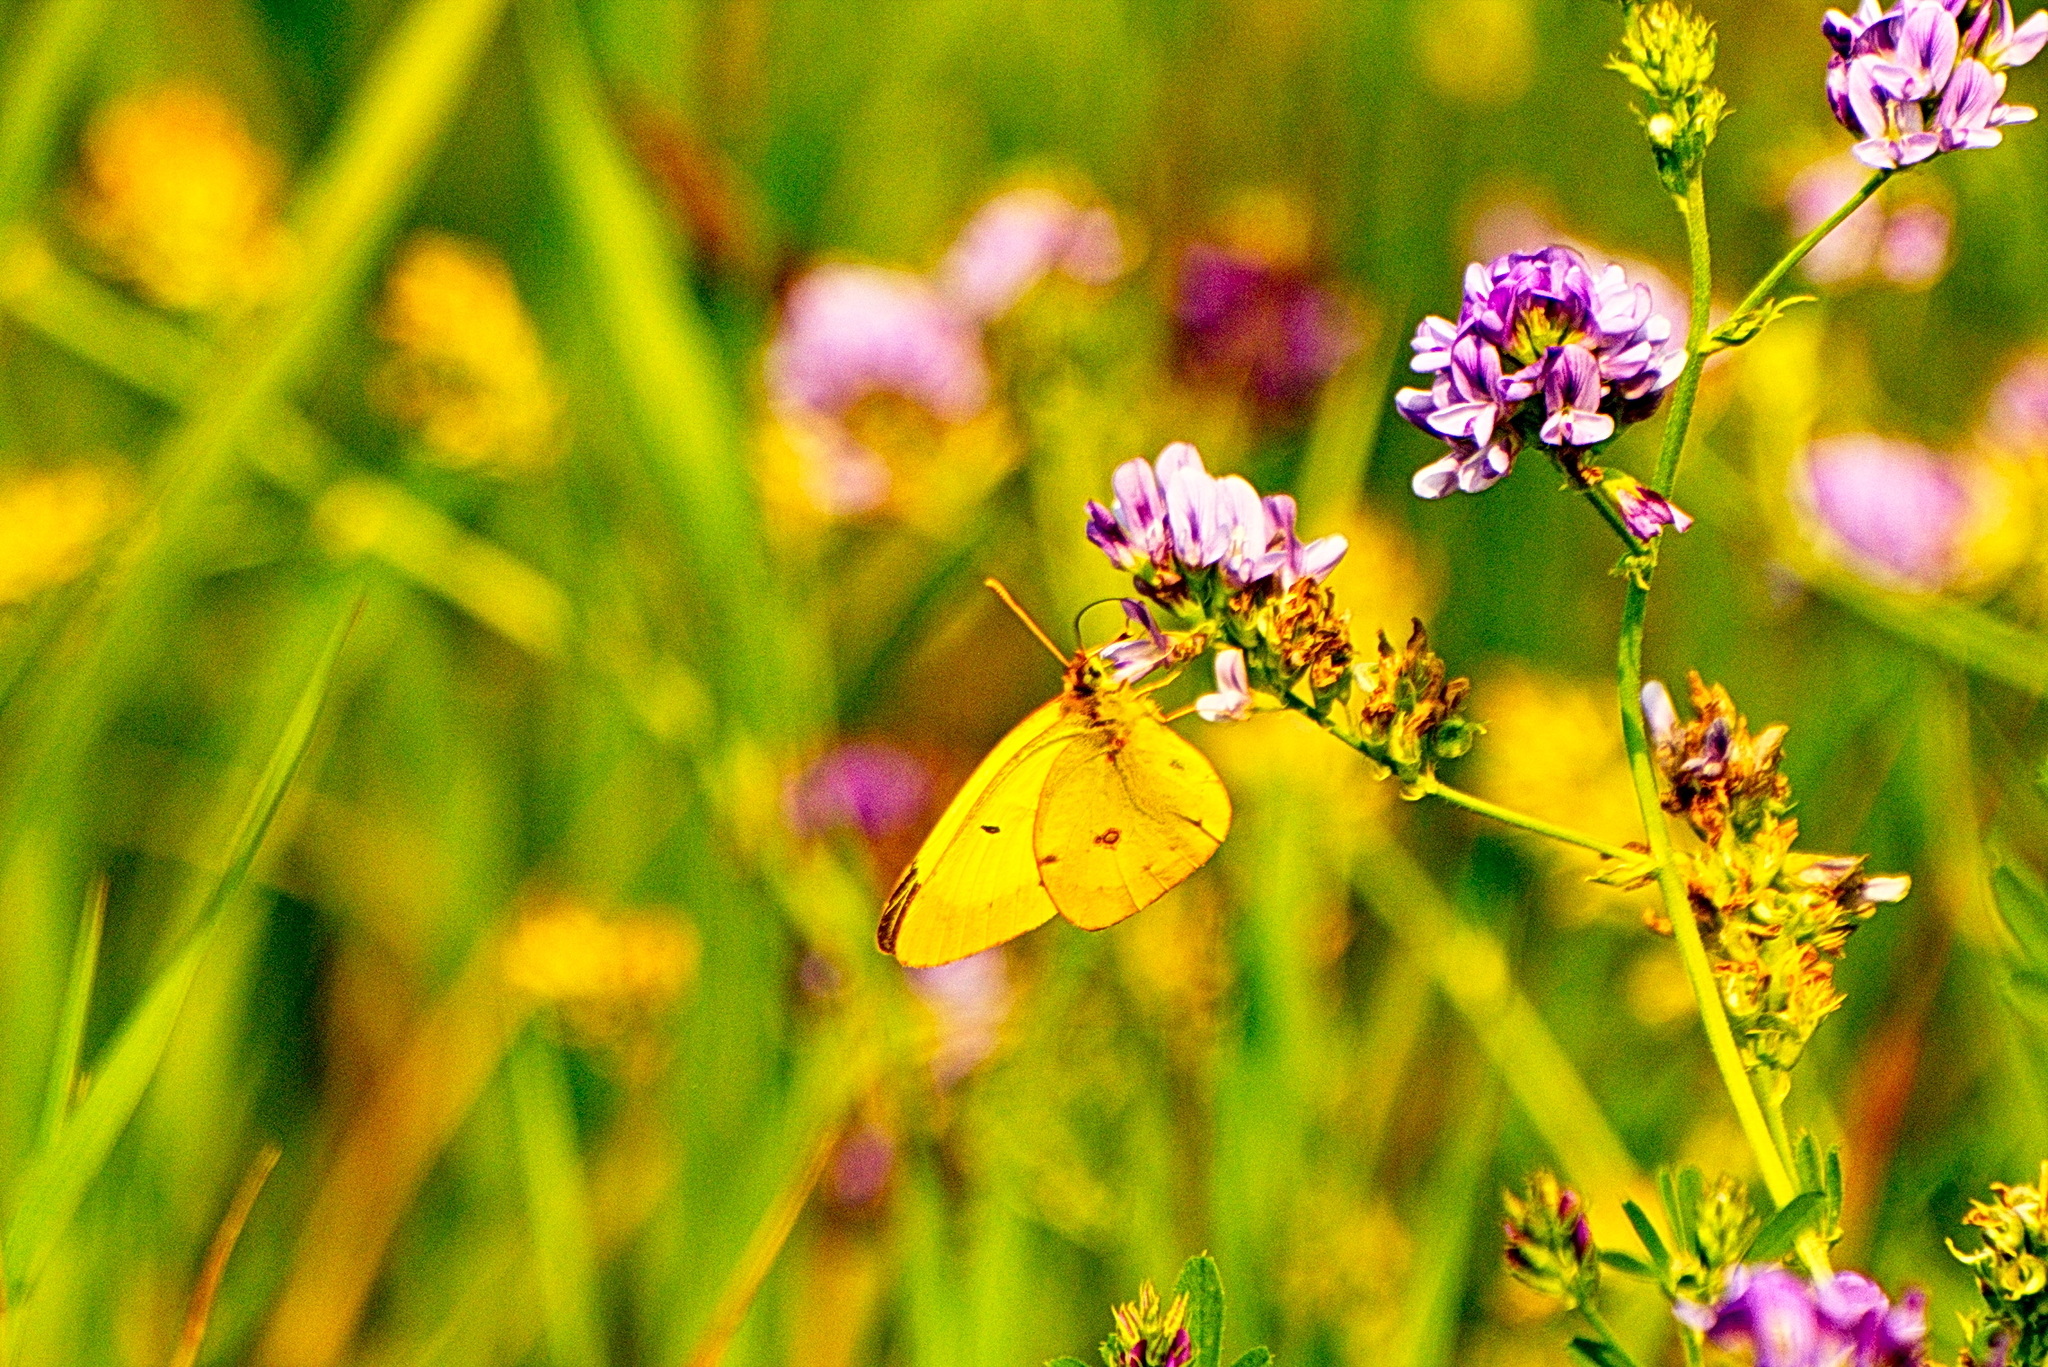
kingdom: Animalia
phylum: Arthropoda
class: Insecta
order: Lepidoptera
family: Pieridae
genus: Colias
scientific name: Colias philodice
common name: Clouded sulphur
